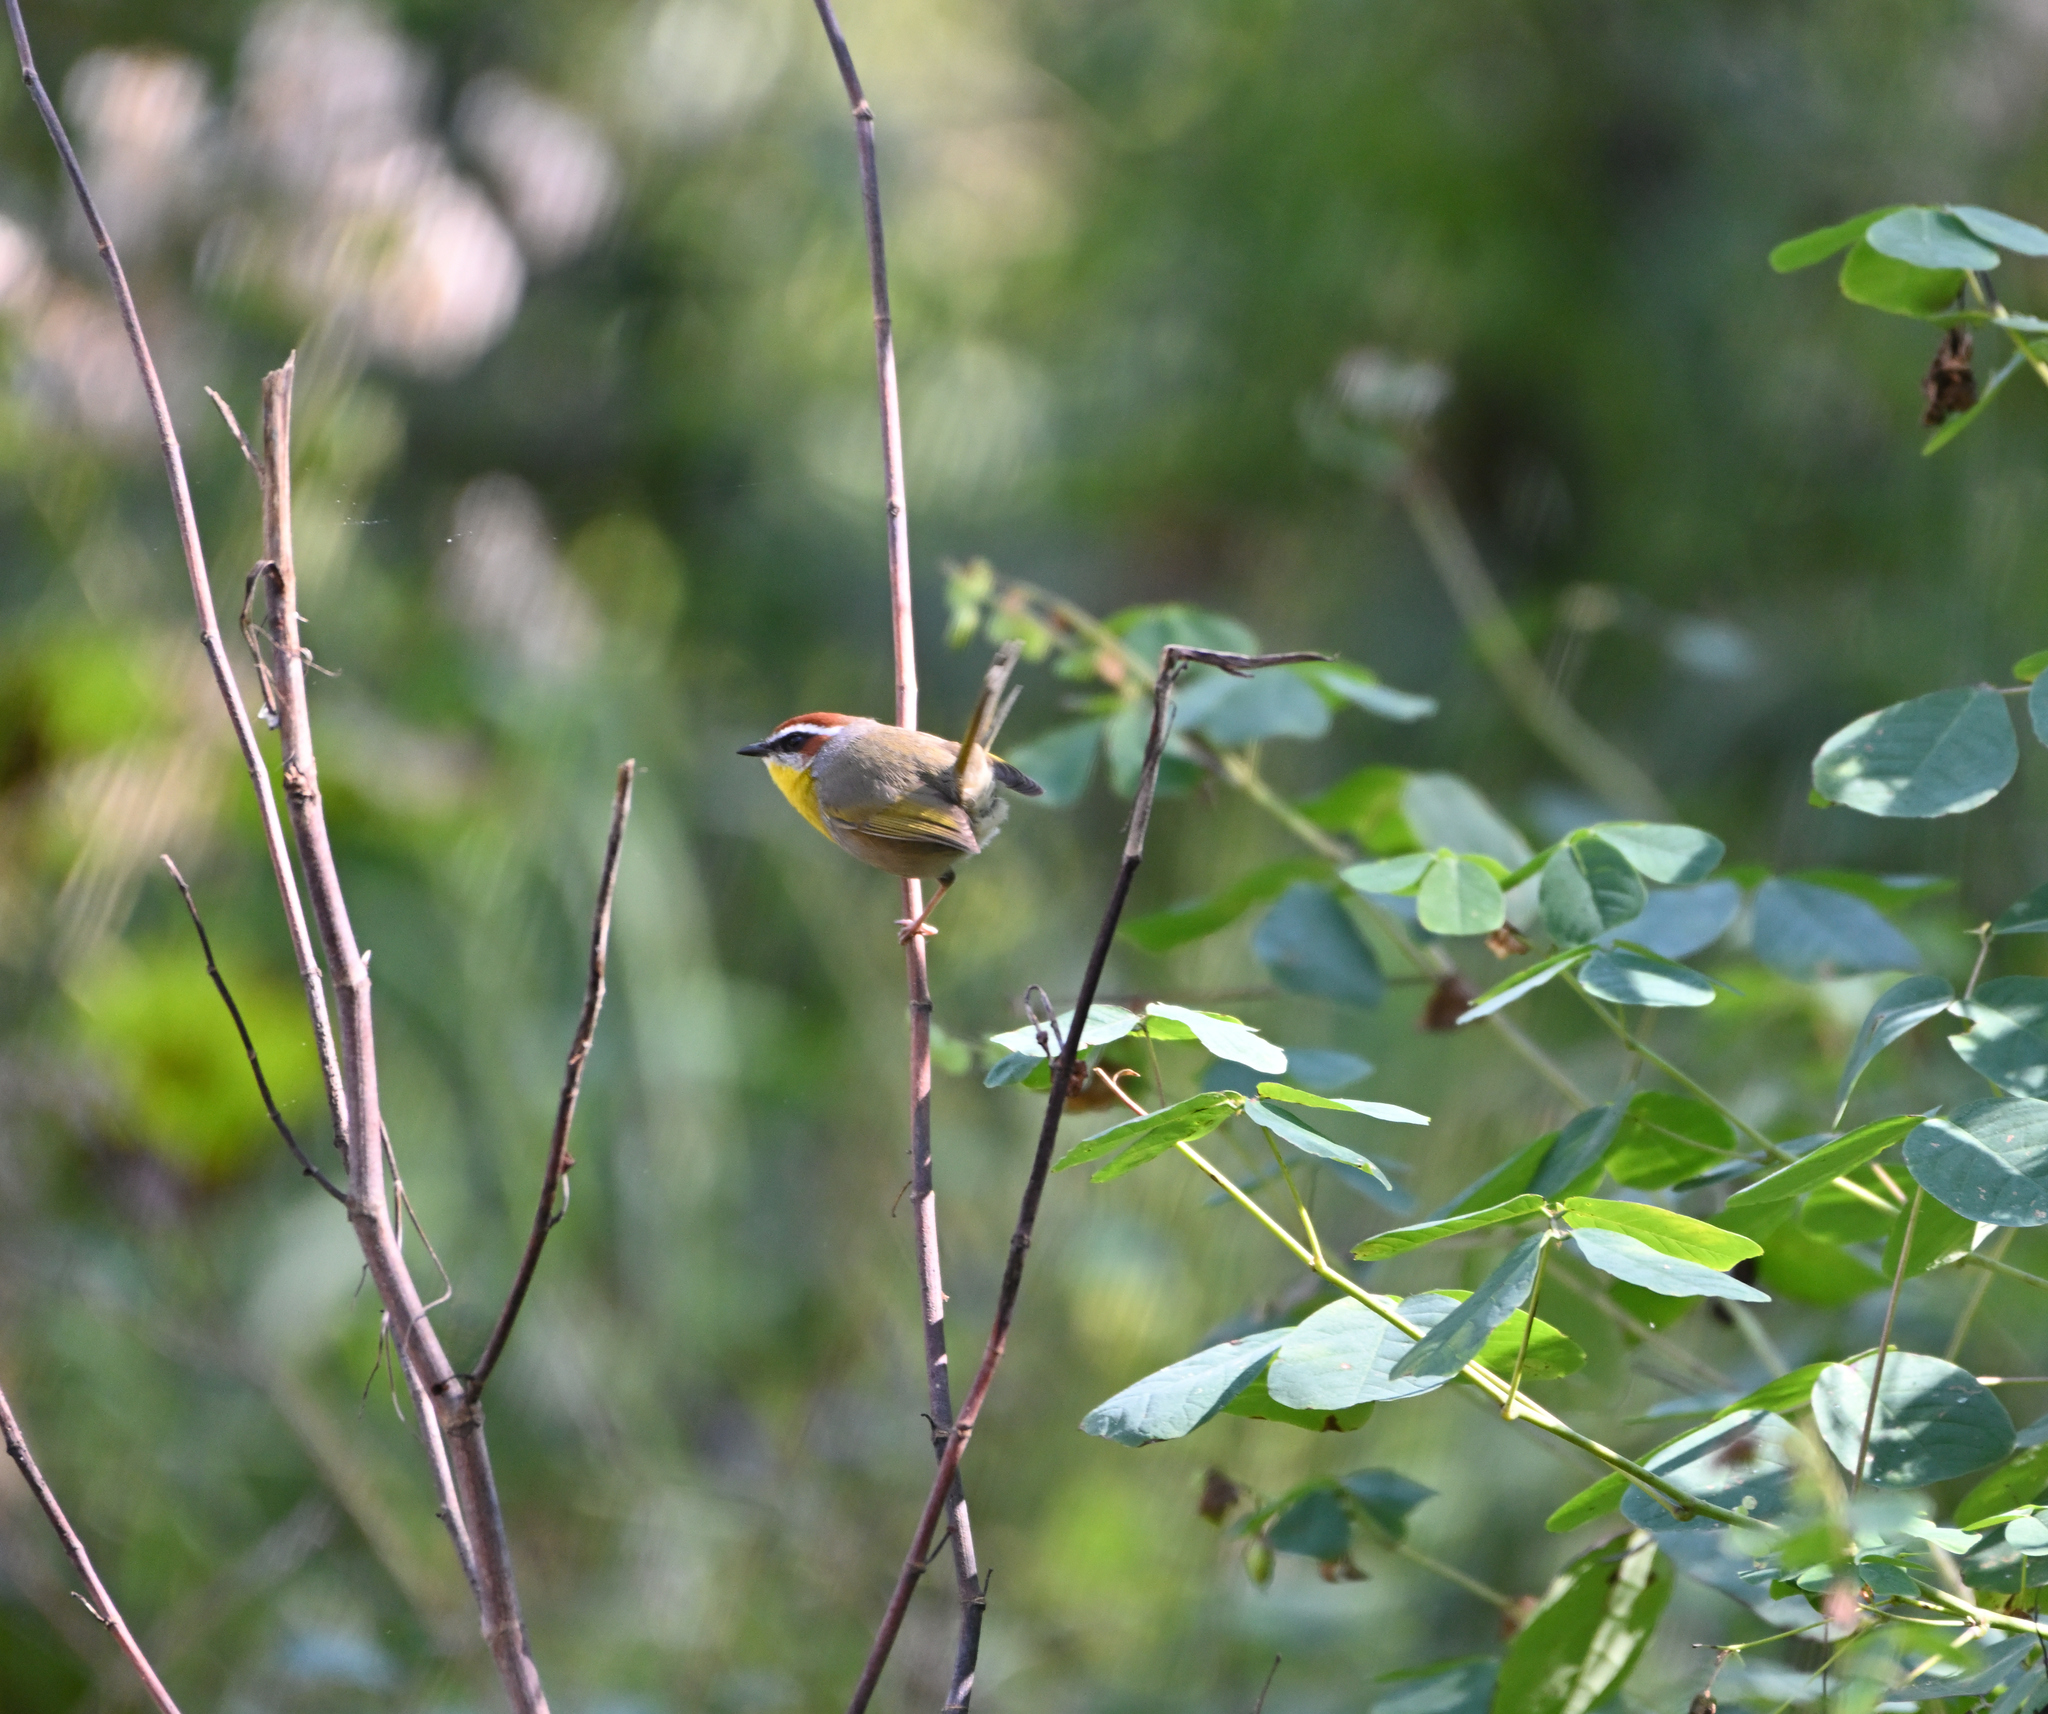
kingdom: Animalia
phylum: Chordata
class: Aves
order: Passeriformes
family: Parulidae
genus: Basileuterus
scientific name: Basileuterus rufifrons
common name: Rufous-capped warbler
